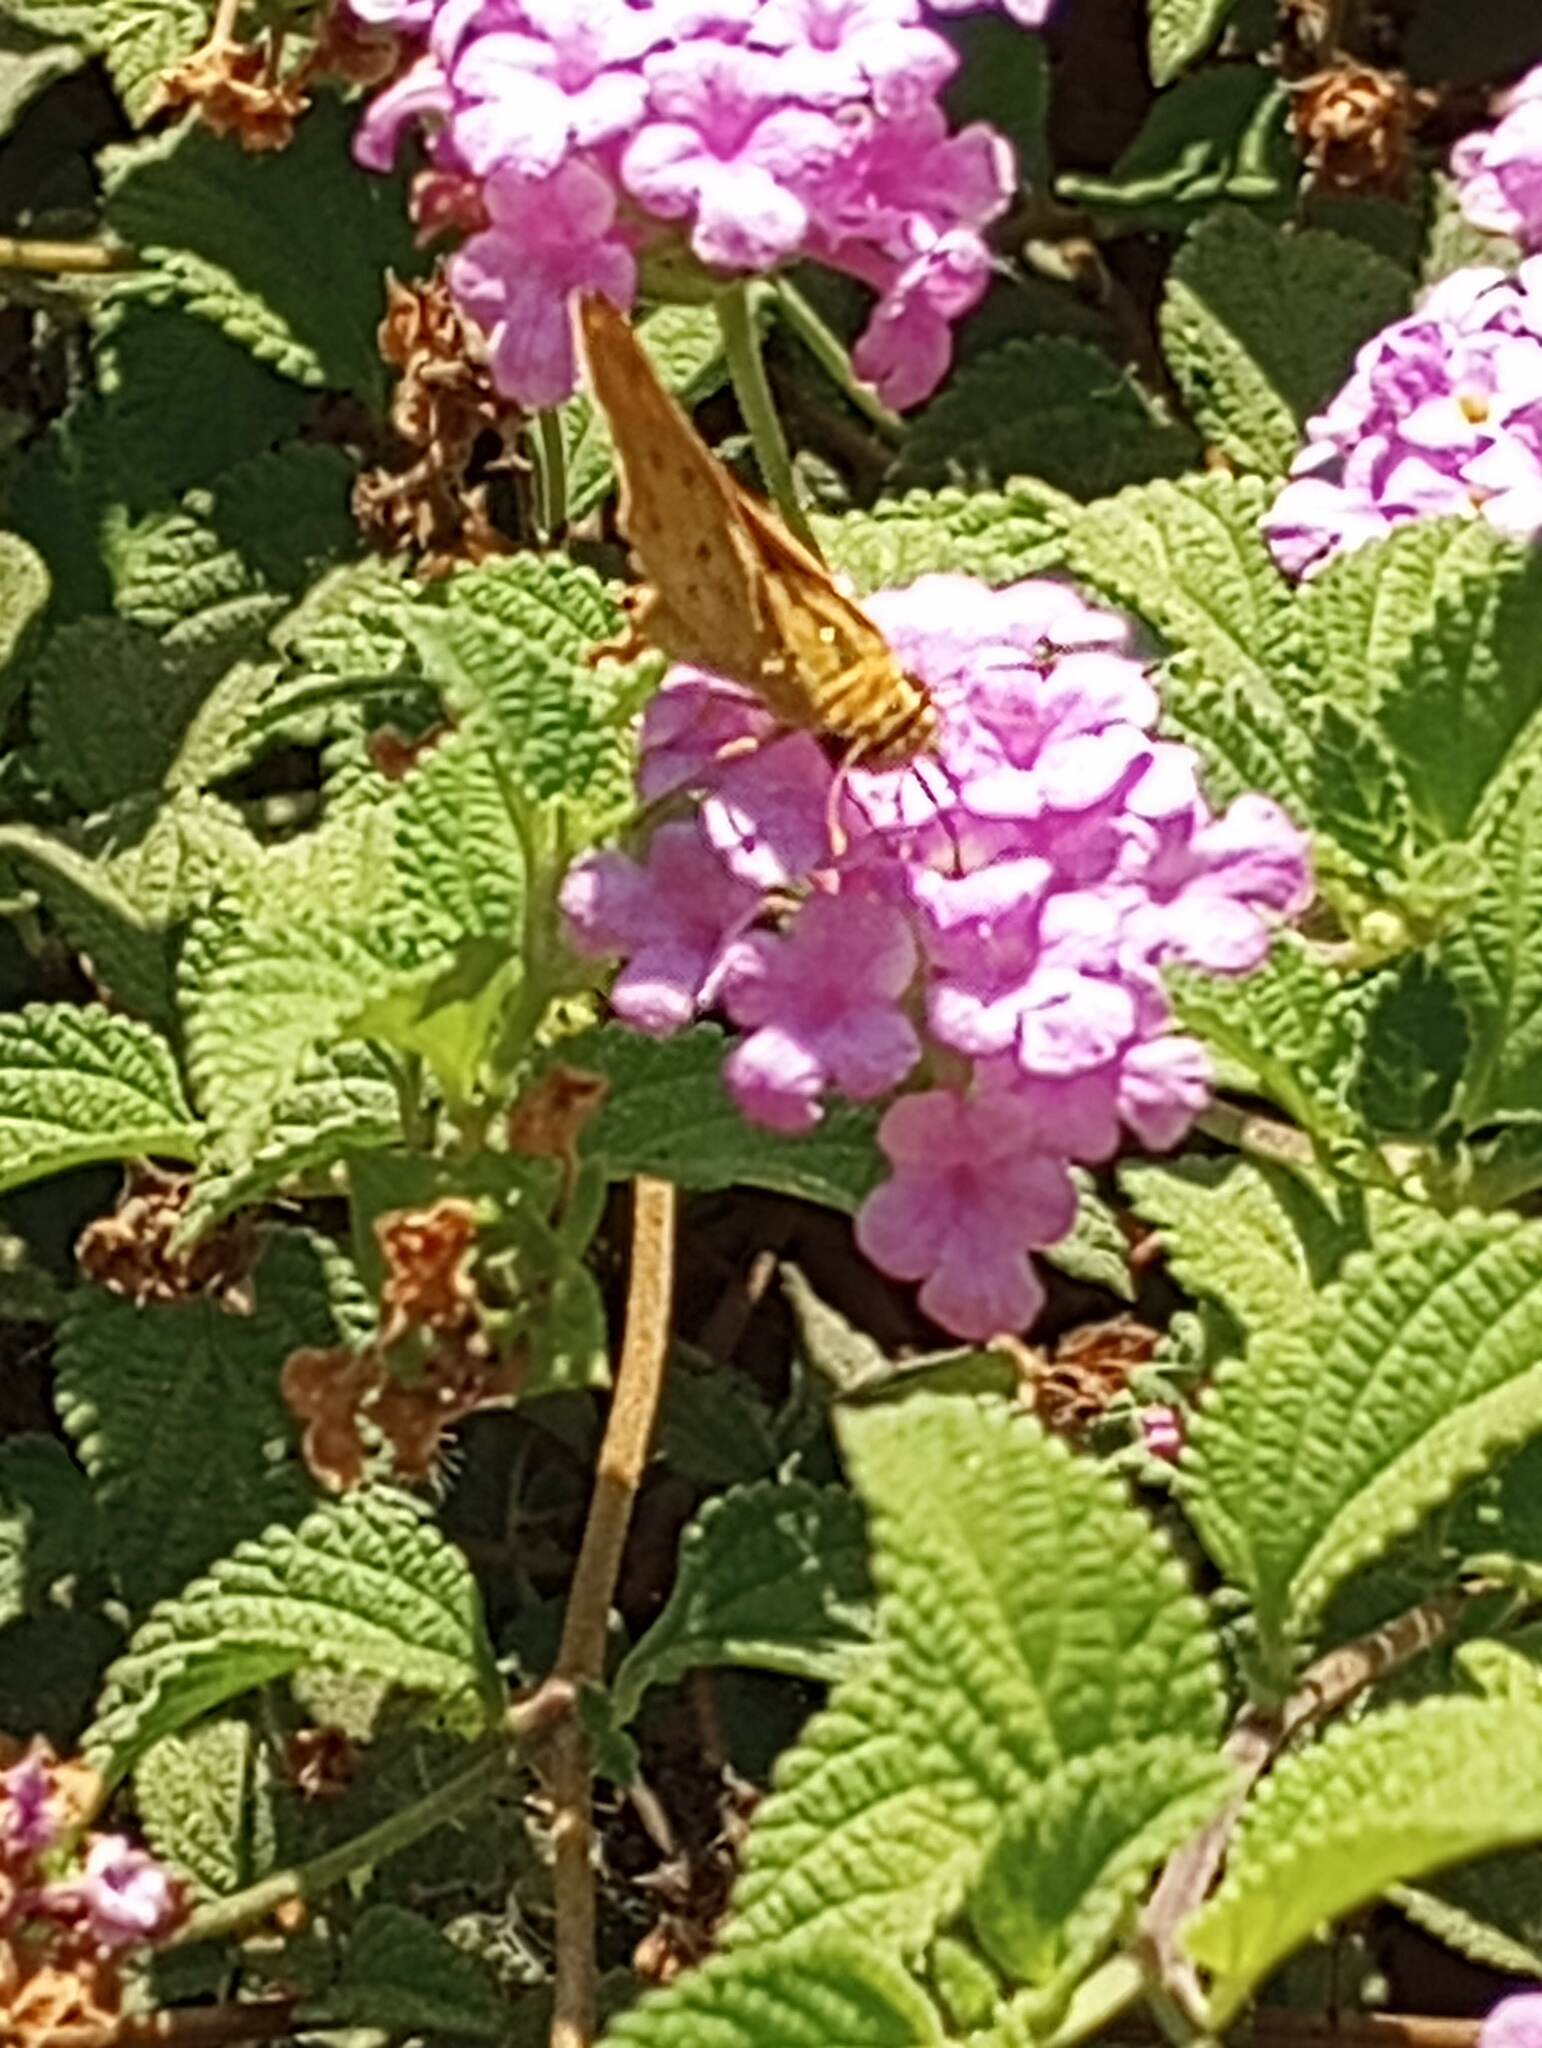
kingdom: Animalia
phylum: Arthropoda
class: Insecta
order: Lepidoptera
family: Hesperiidae
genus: Hylephila
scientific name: Hylephila phyleus
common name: Fiery skipper
